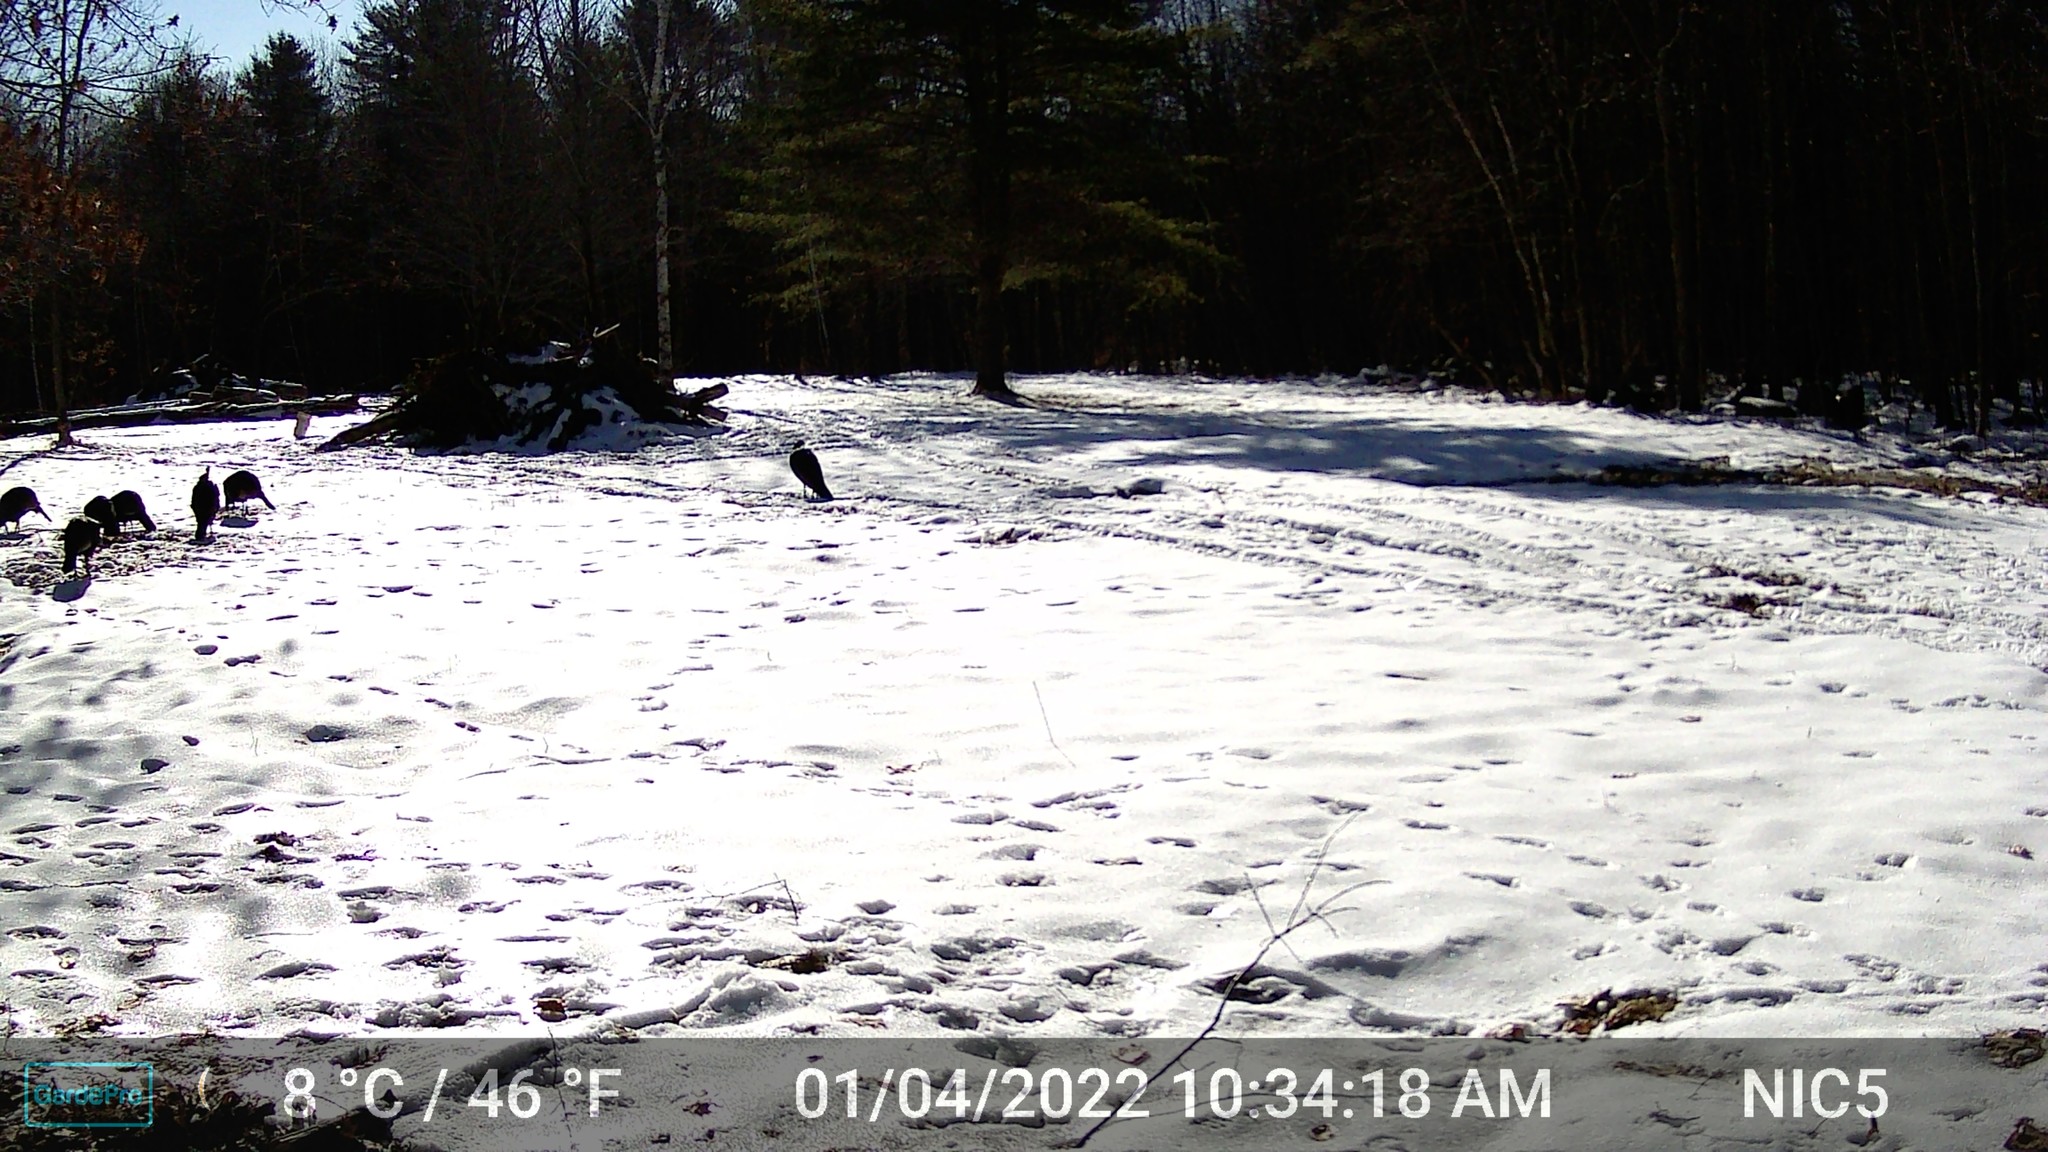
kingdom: Animalia
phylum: Chordata
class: Aves
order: Galliformes
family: Phasianidae
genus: Meleagris
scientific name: Meleagris gallopavo
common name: Wild turkey
